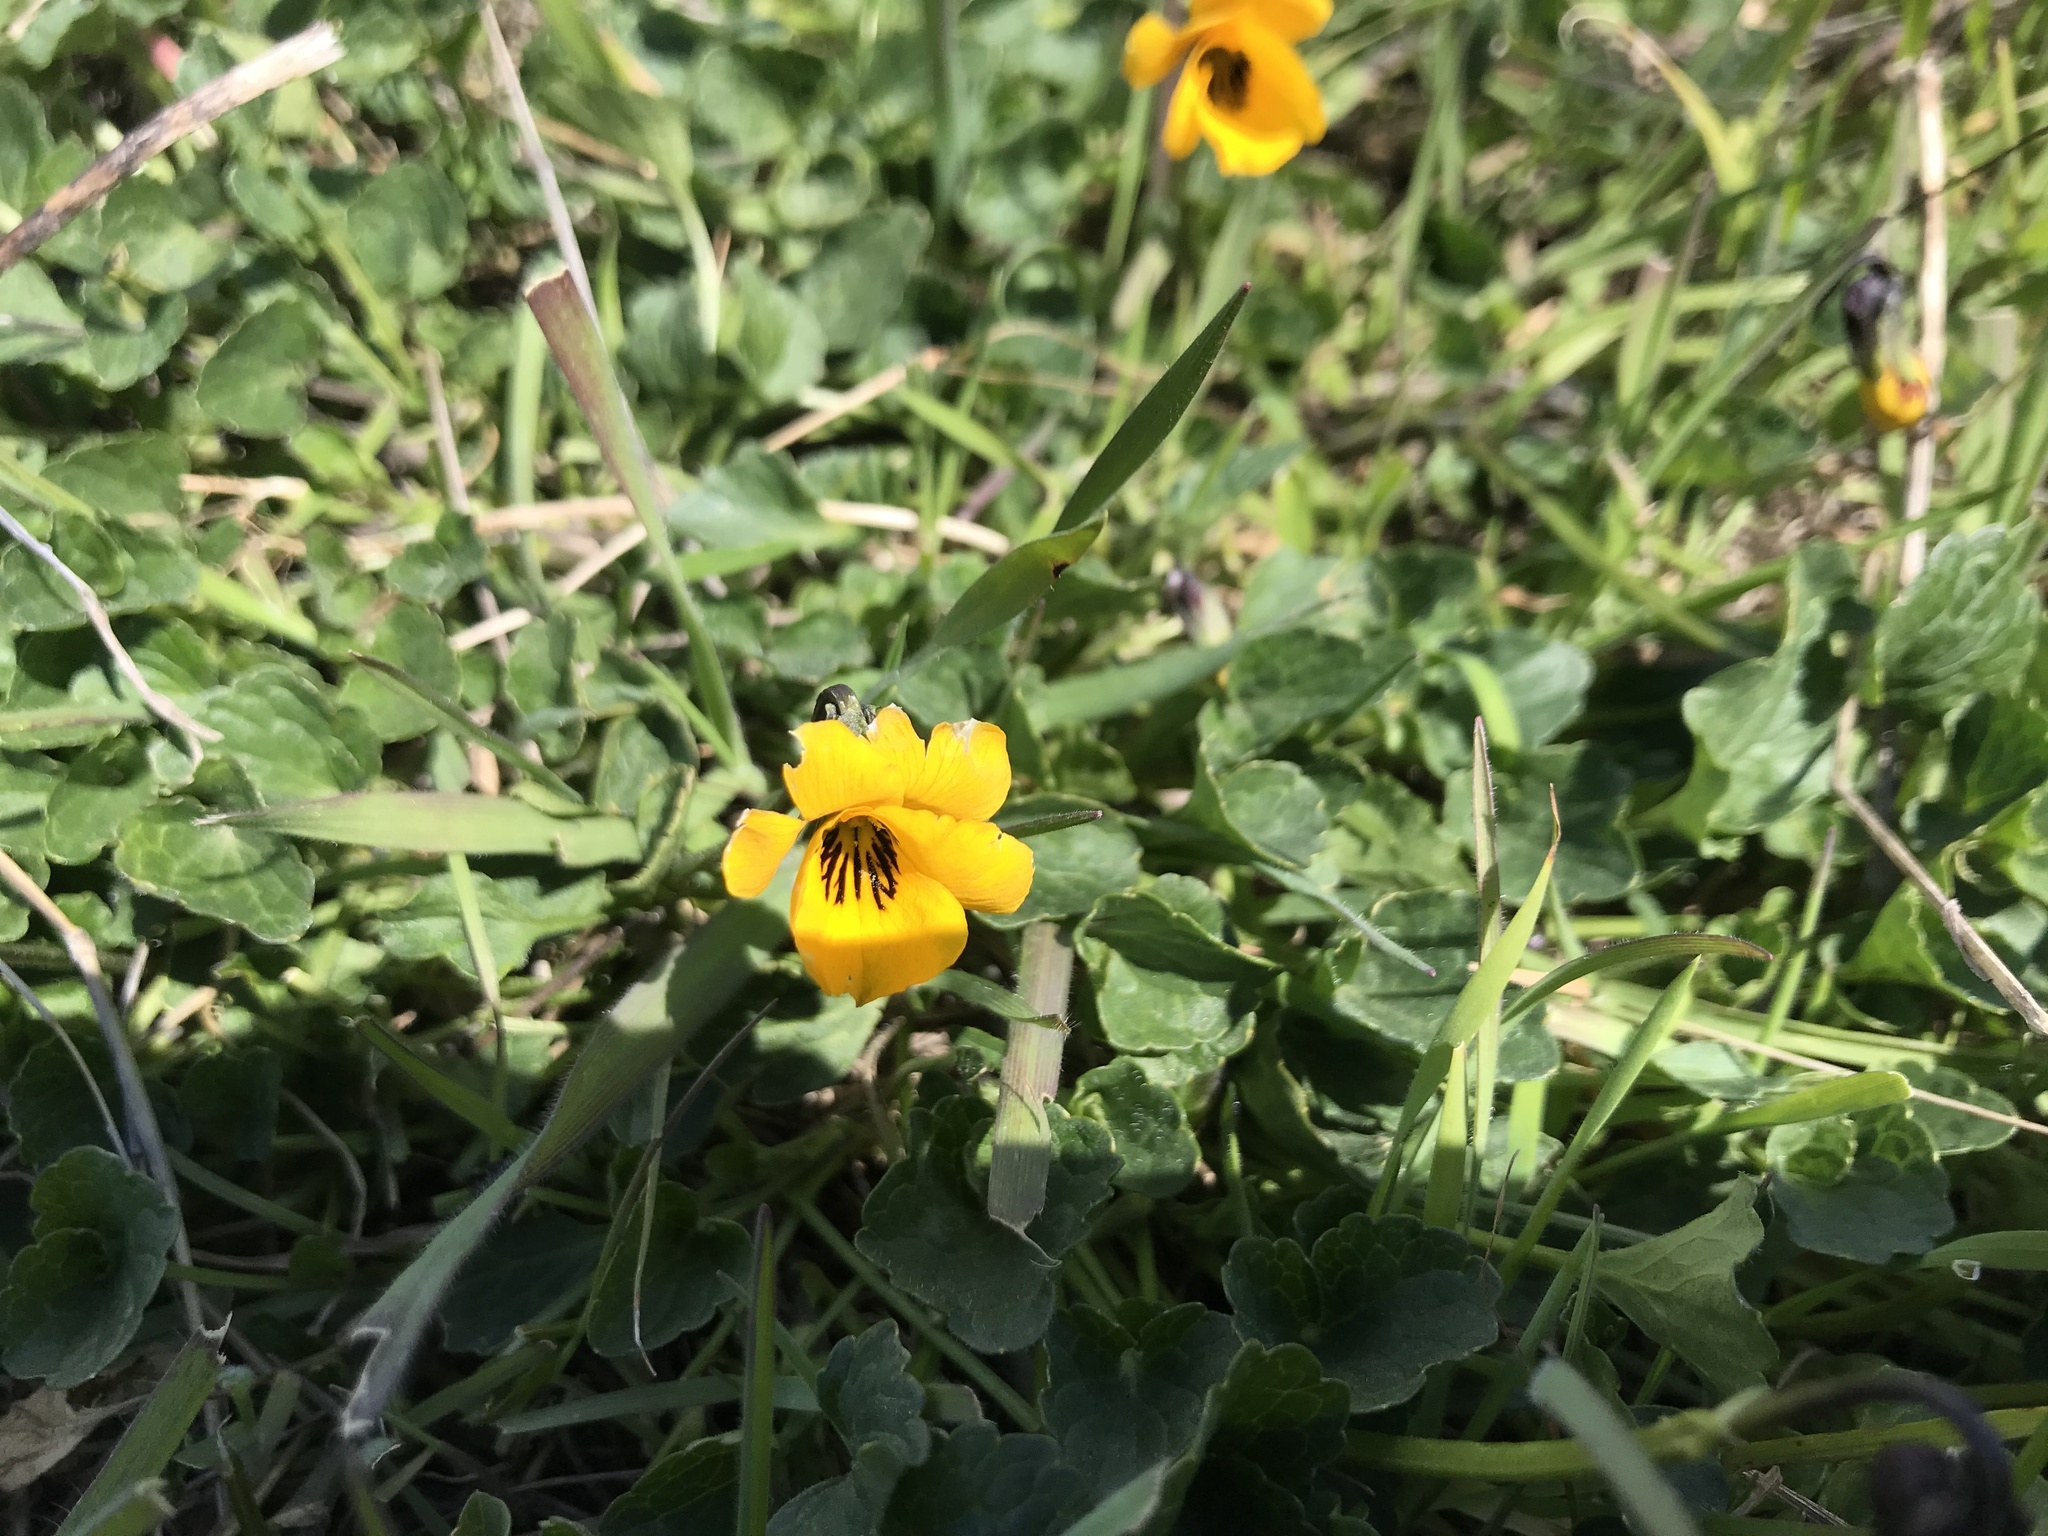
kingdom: Plantae
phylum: Tracheophyta
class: Magnoliopsida
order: Malpighiales
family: Violaceae
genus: Viola
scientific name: Viola pedunculata
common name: California golden violet
